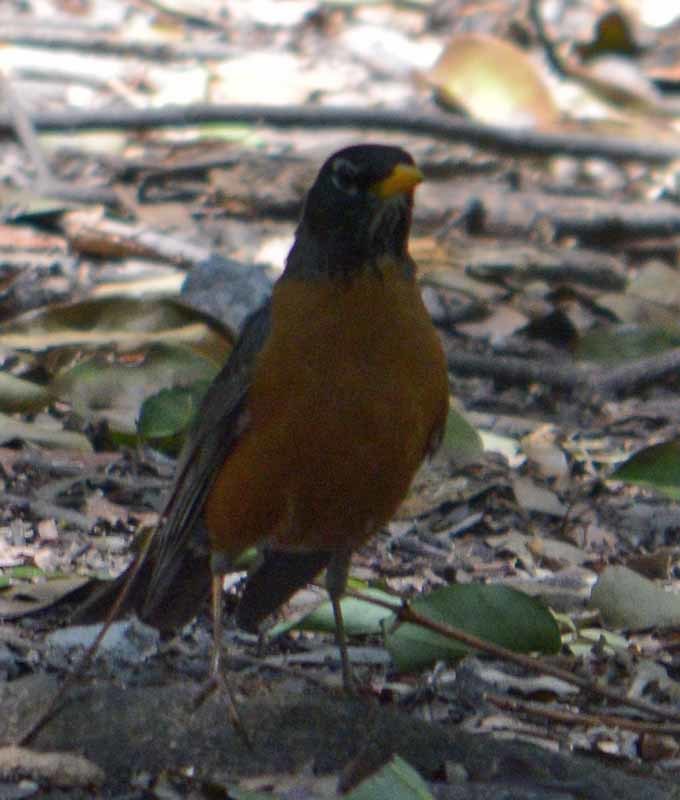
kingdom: Animalia
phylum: Chordata
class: Aves
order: Passeriformes
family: Turdidae
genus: Turdus
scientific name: Turdus migratorius
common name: American robin
